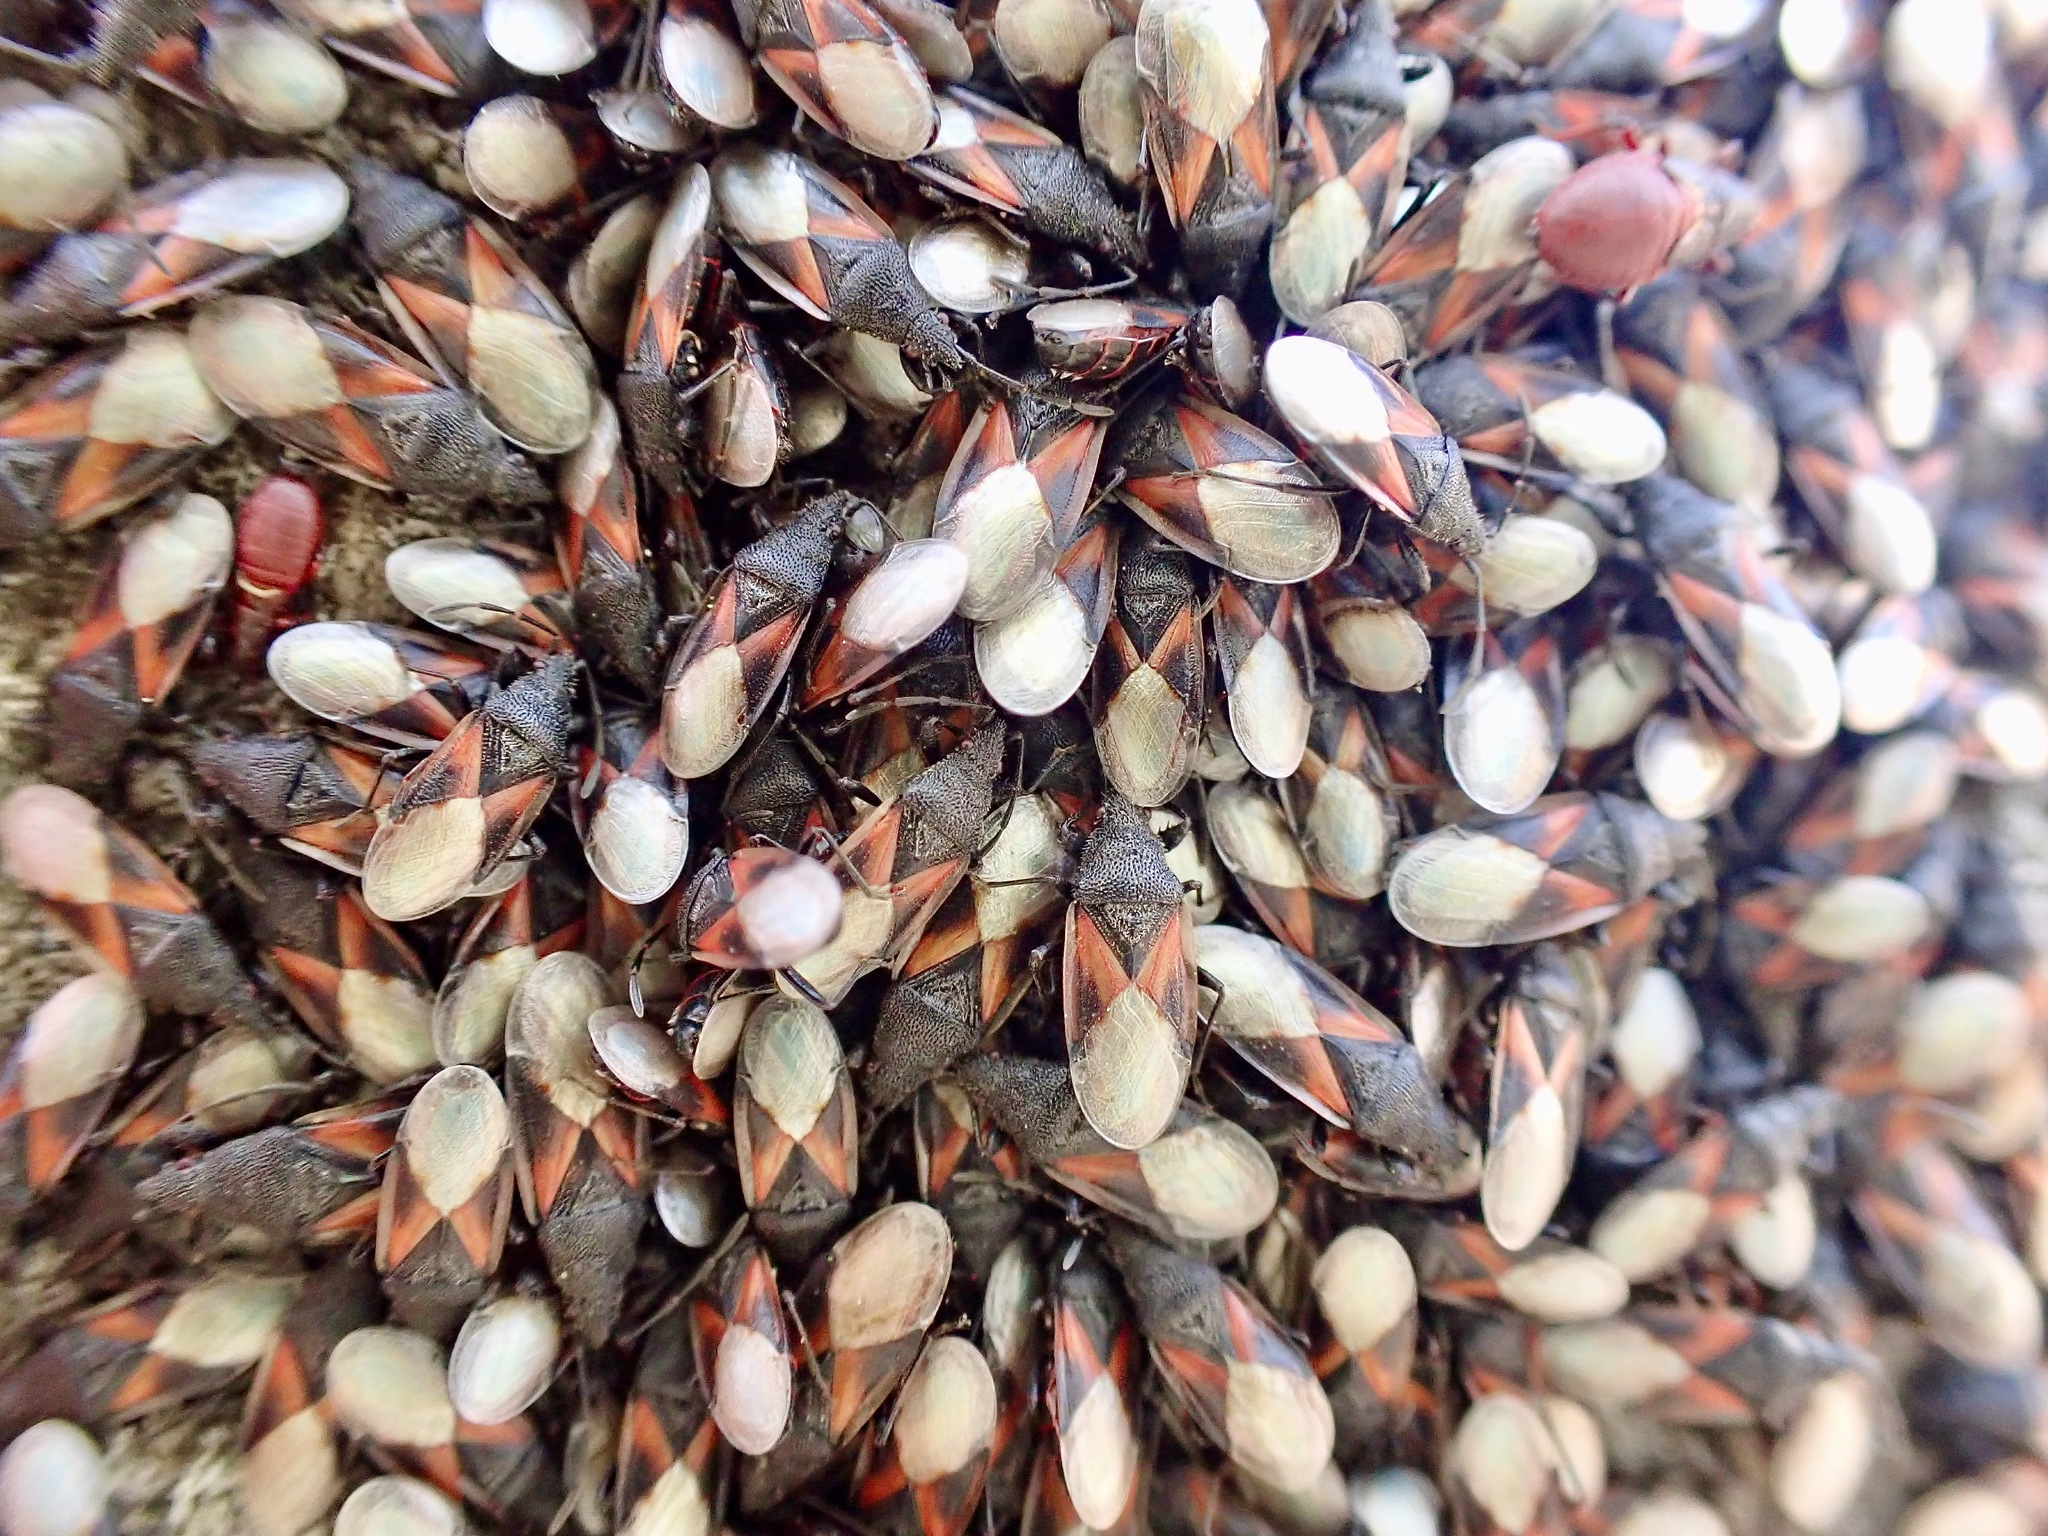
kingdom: Animalia
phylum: Arthropoda
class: Insecta
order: Hemiptera
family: Oxycarenidae
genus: Oxycarenus
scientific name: Oxycarenus lavaterae
